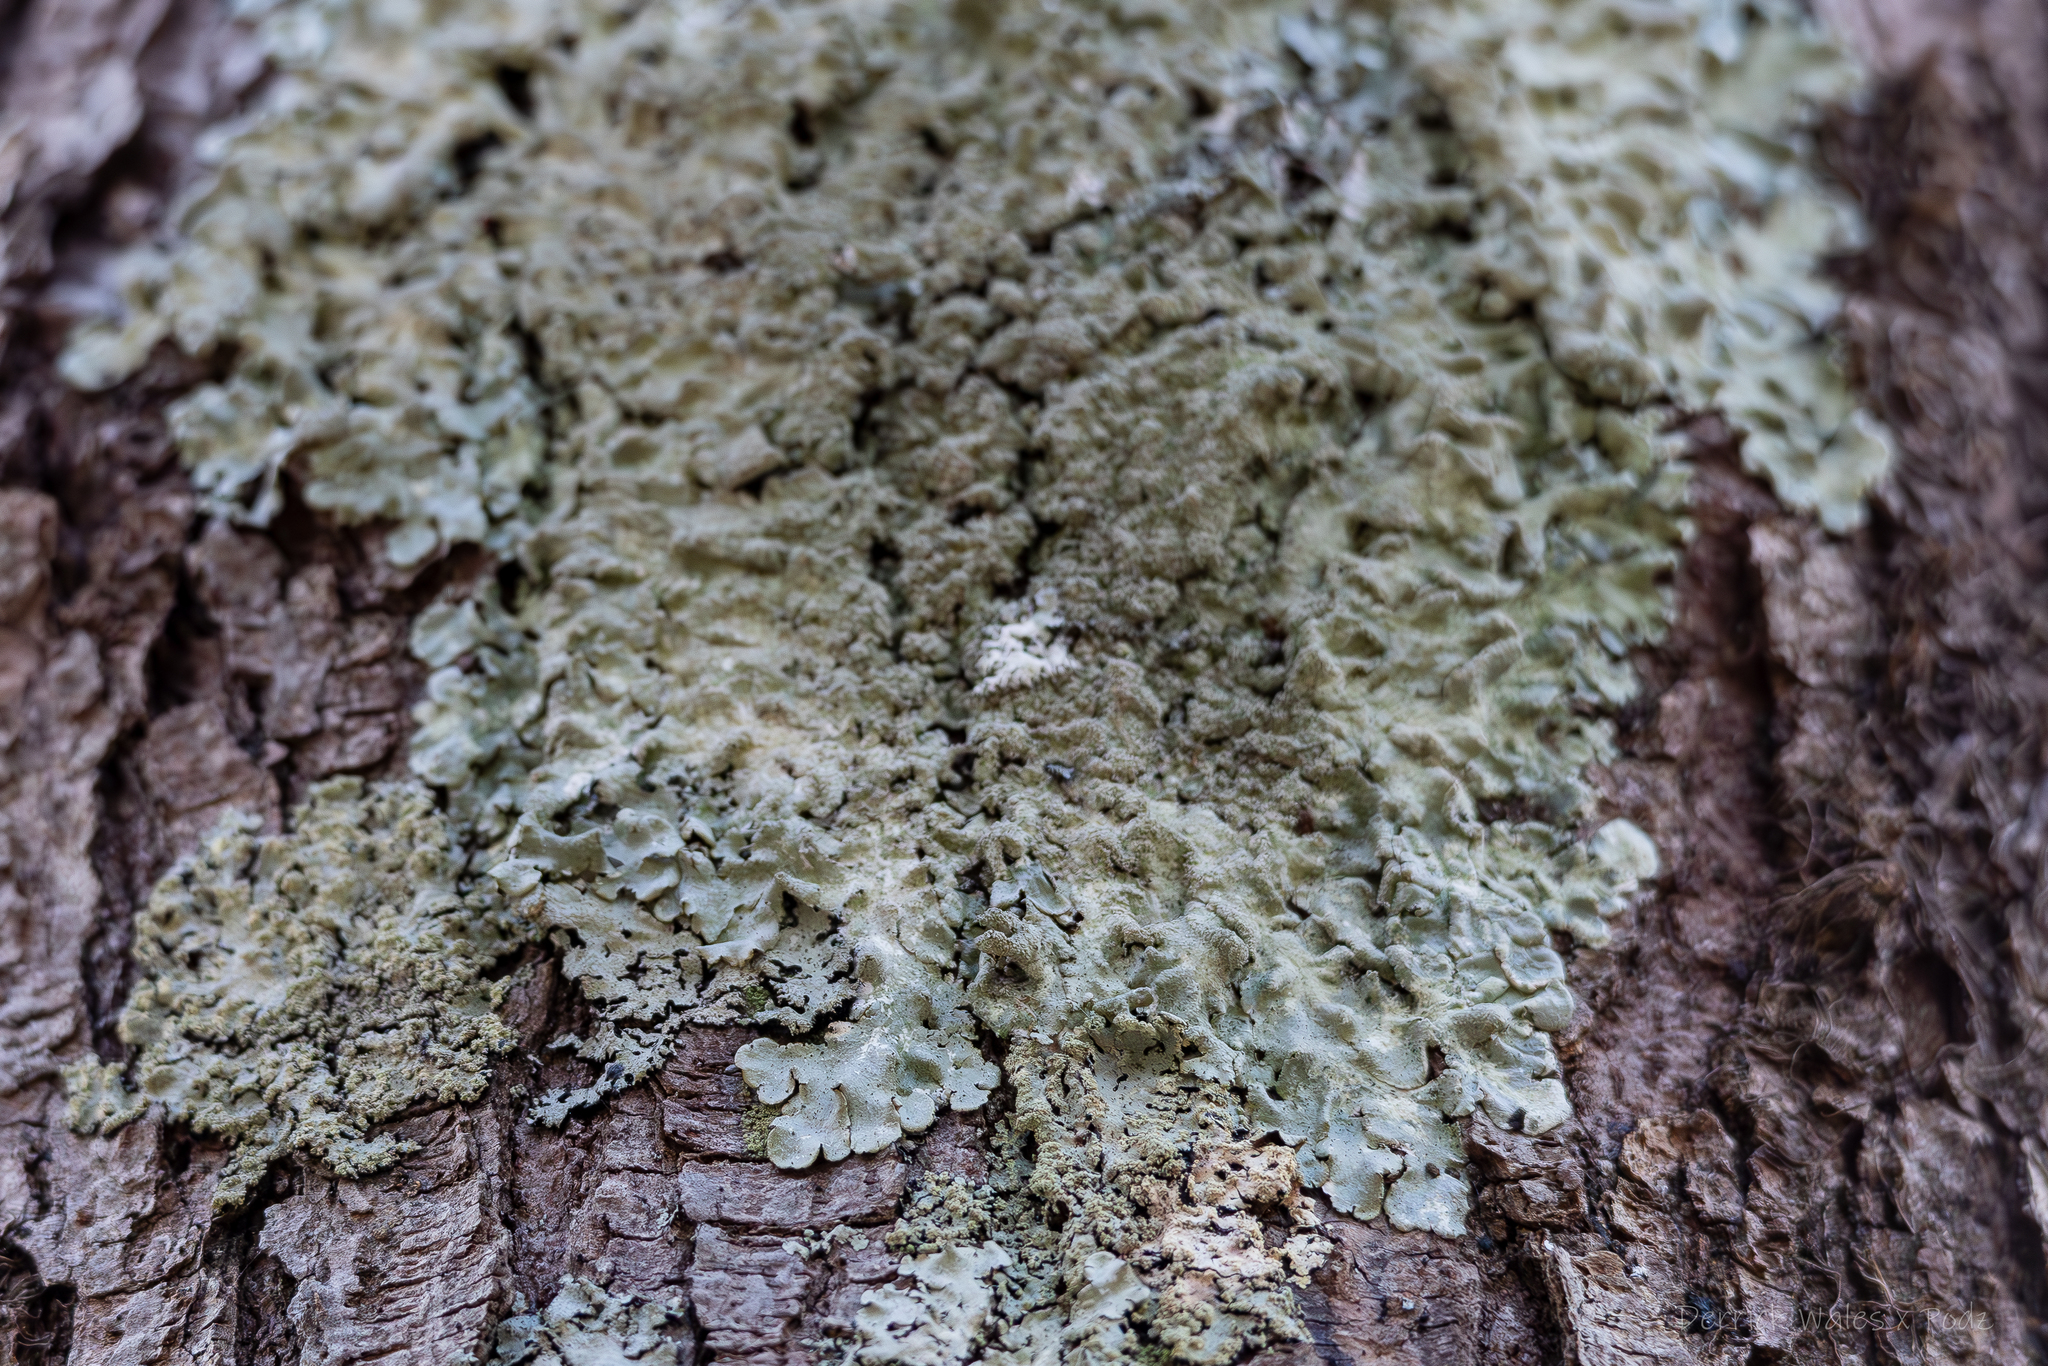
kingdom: Fungi
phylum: Ascomycota
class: Lecanoromycetes
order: Lecanorales
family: Parmeliaceae
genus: Canoparmelia
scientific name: Canoparmelia caroliniana
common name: Carolina shield lichen
